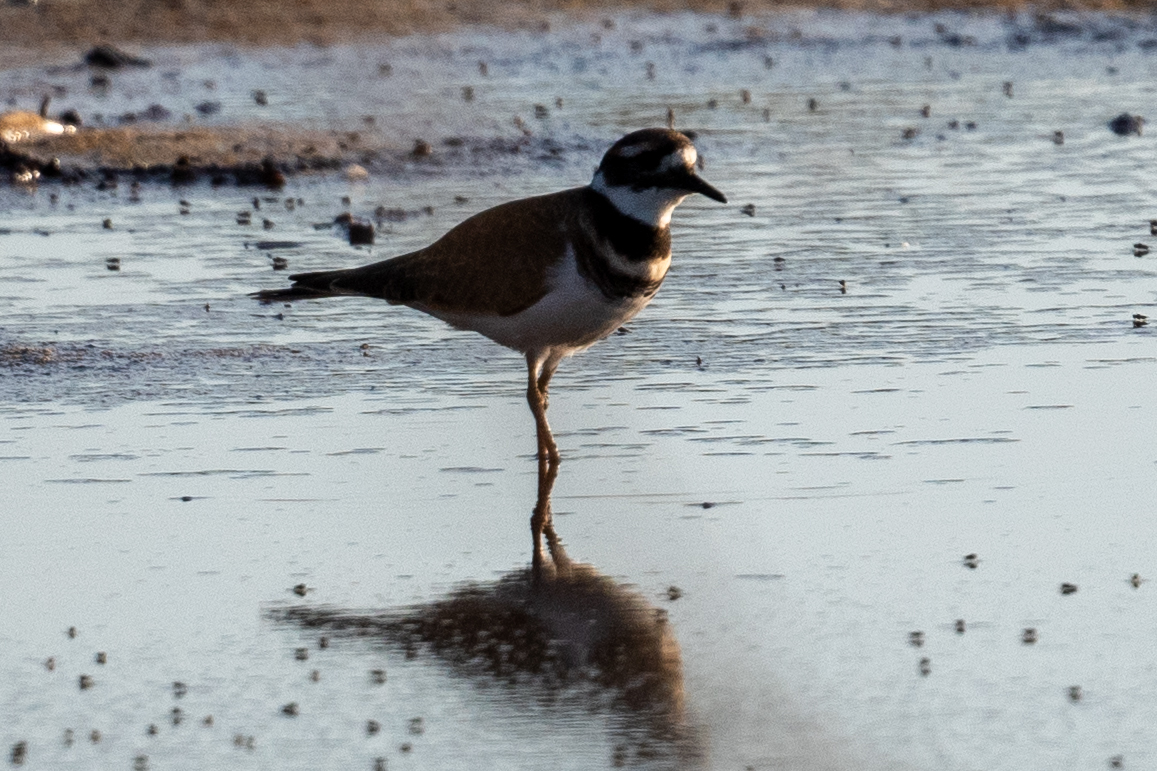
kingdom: Animalia
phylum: Chordata
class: Aves
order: Charadriiformes
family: Charadriidae
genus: Charadrius
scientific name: Charadrius vociferus
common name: Killdeer
